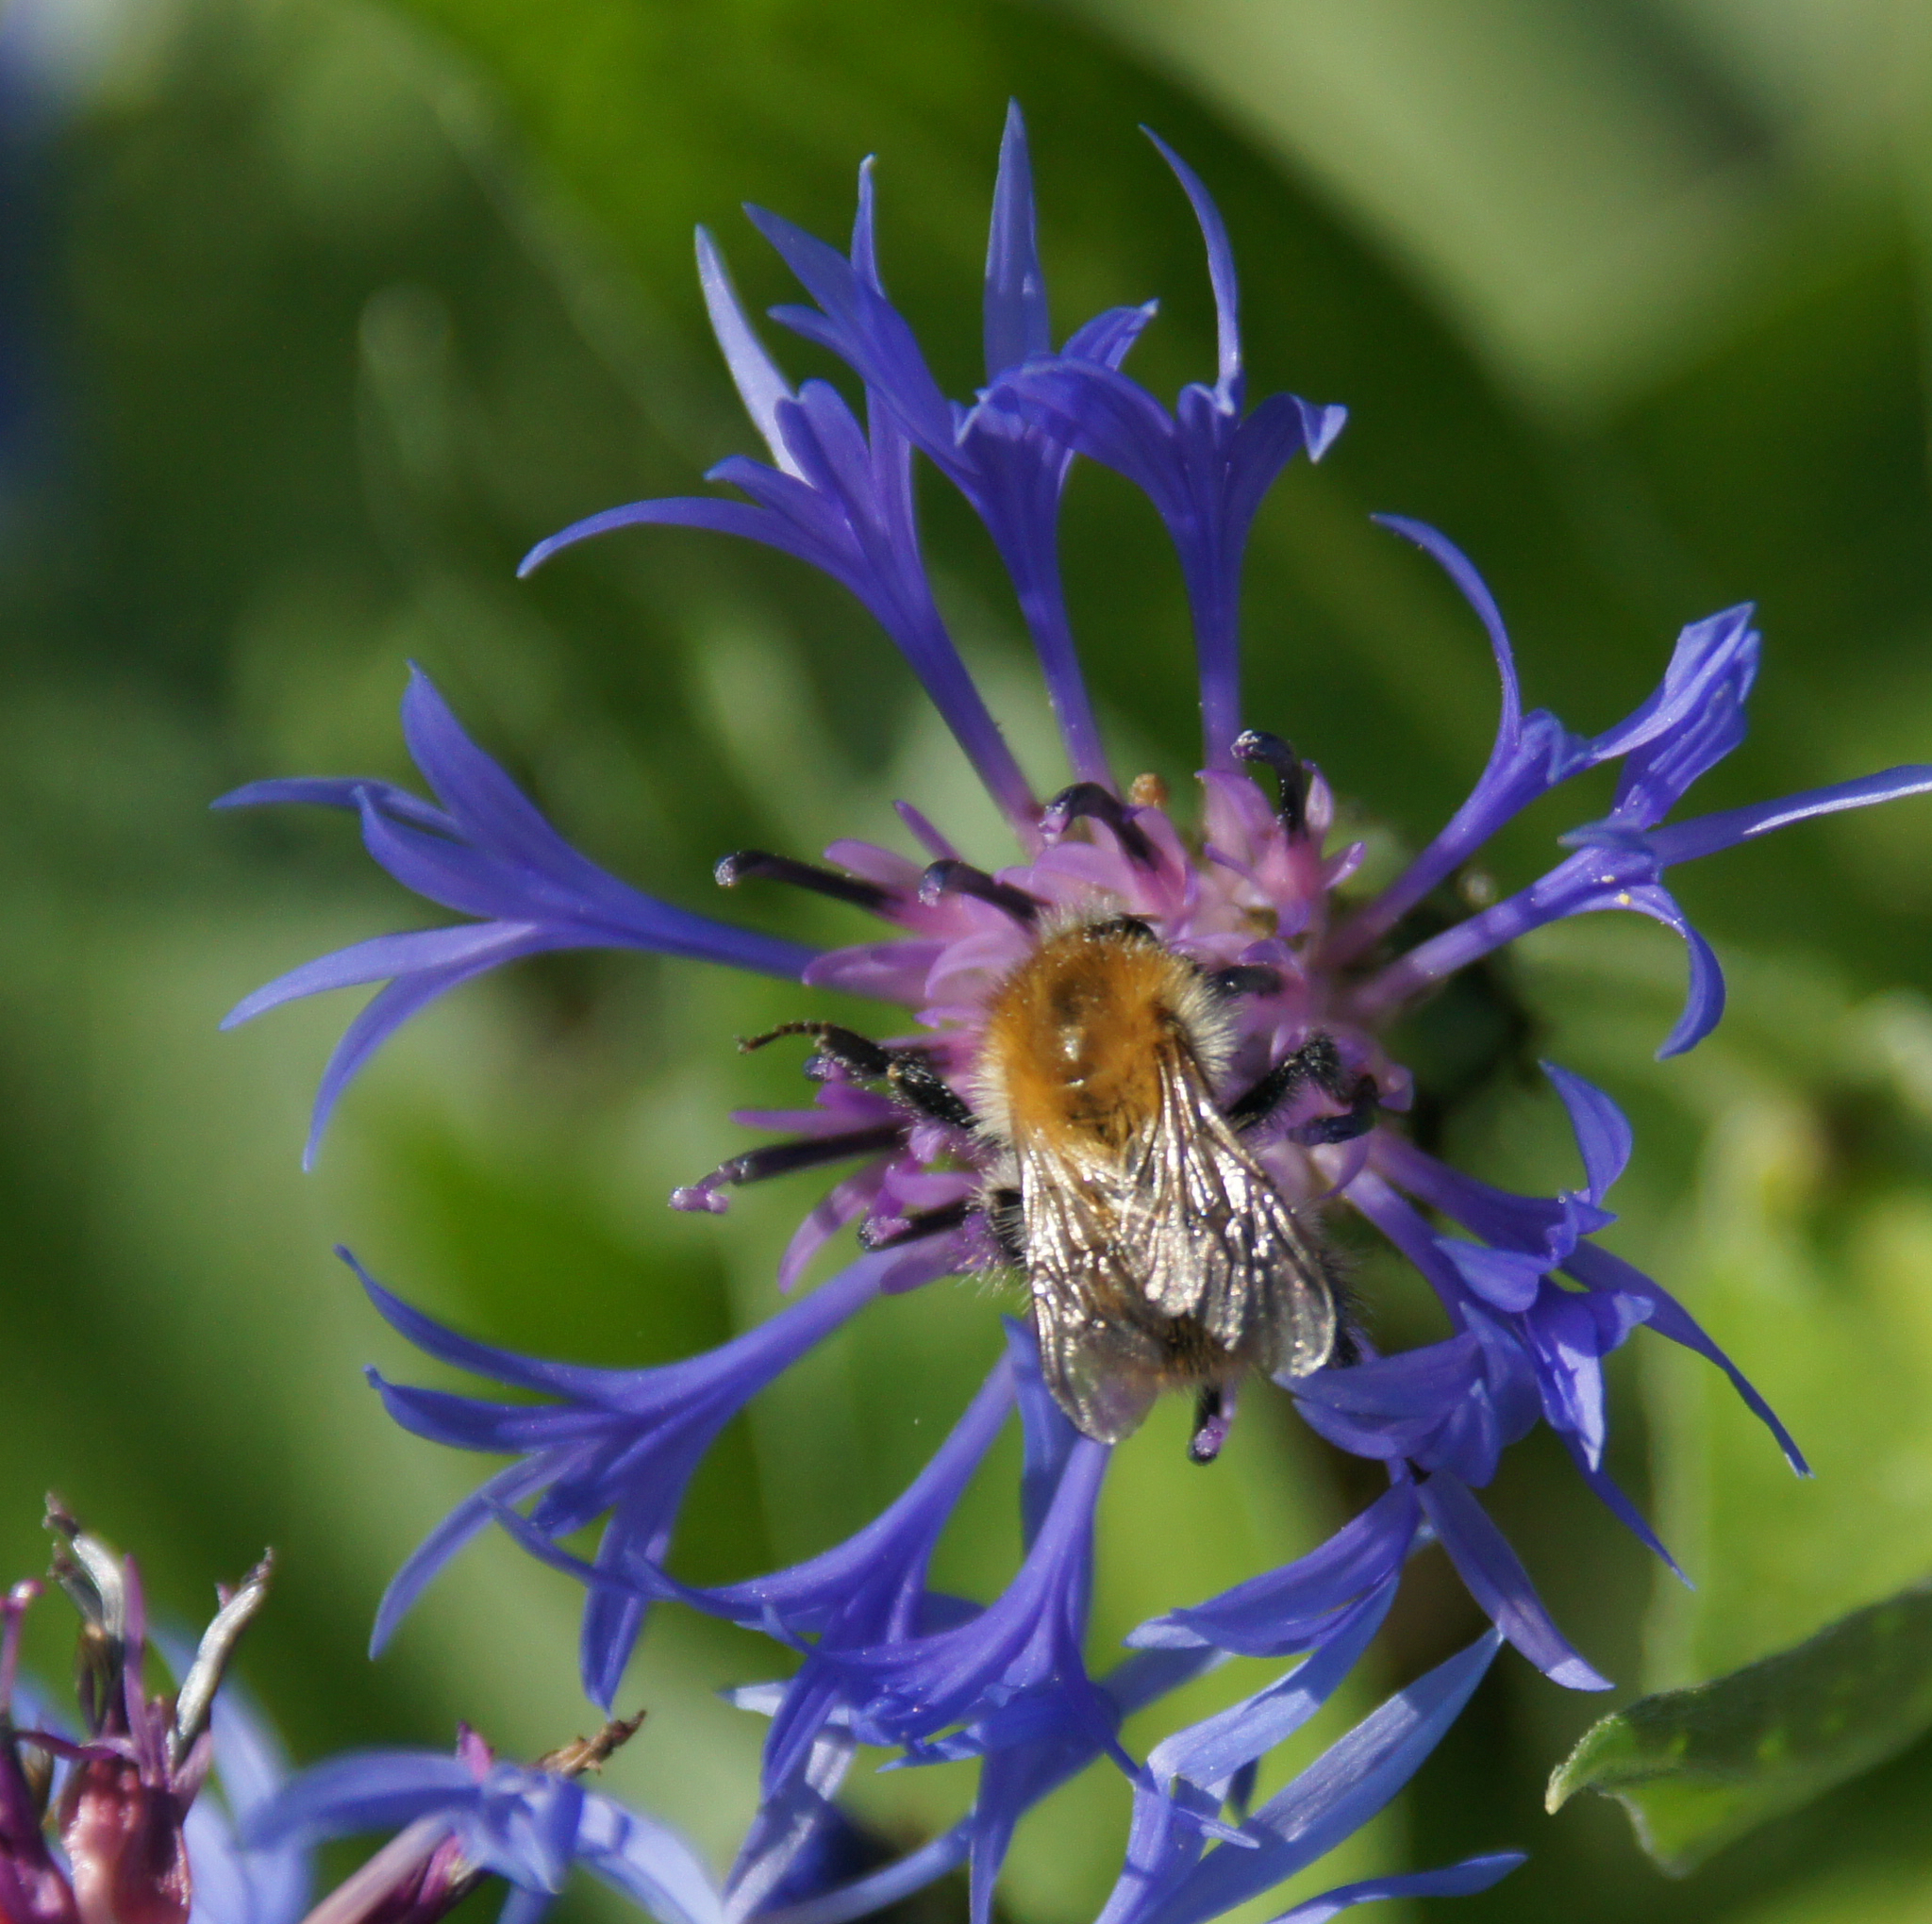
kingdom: Animalia
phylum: Arthropoda
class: Insecta
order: Hymenoptera
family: Apidae
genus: Bombus
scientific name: Bombus pascuorum
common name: Common carder bee
